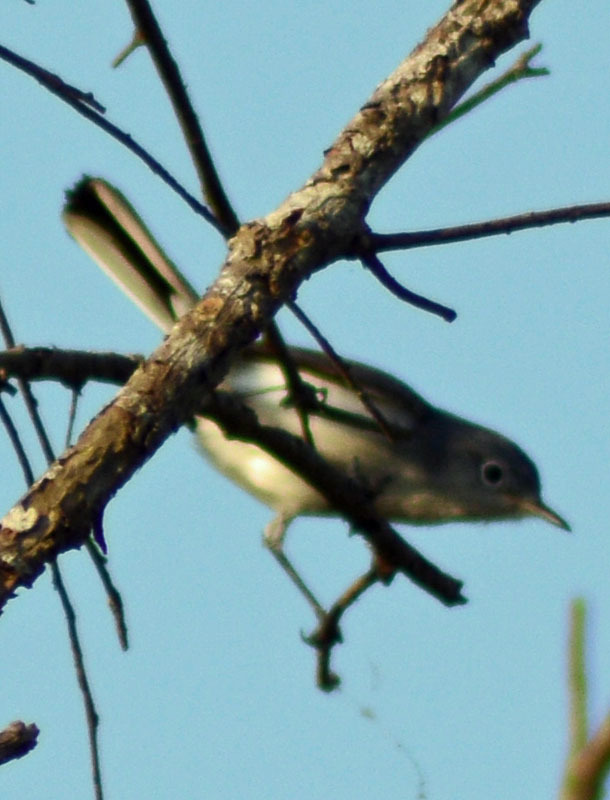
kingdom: Animalia
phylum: Chordata
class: Aves
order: Passeriformes
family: Polioptilidae
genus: Polioptila
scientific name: Polioptila caerulea
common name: Blue-gray gnatcatcher
